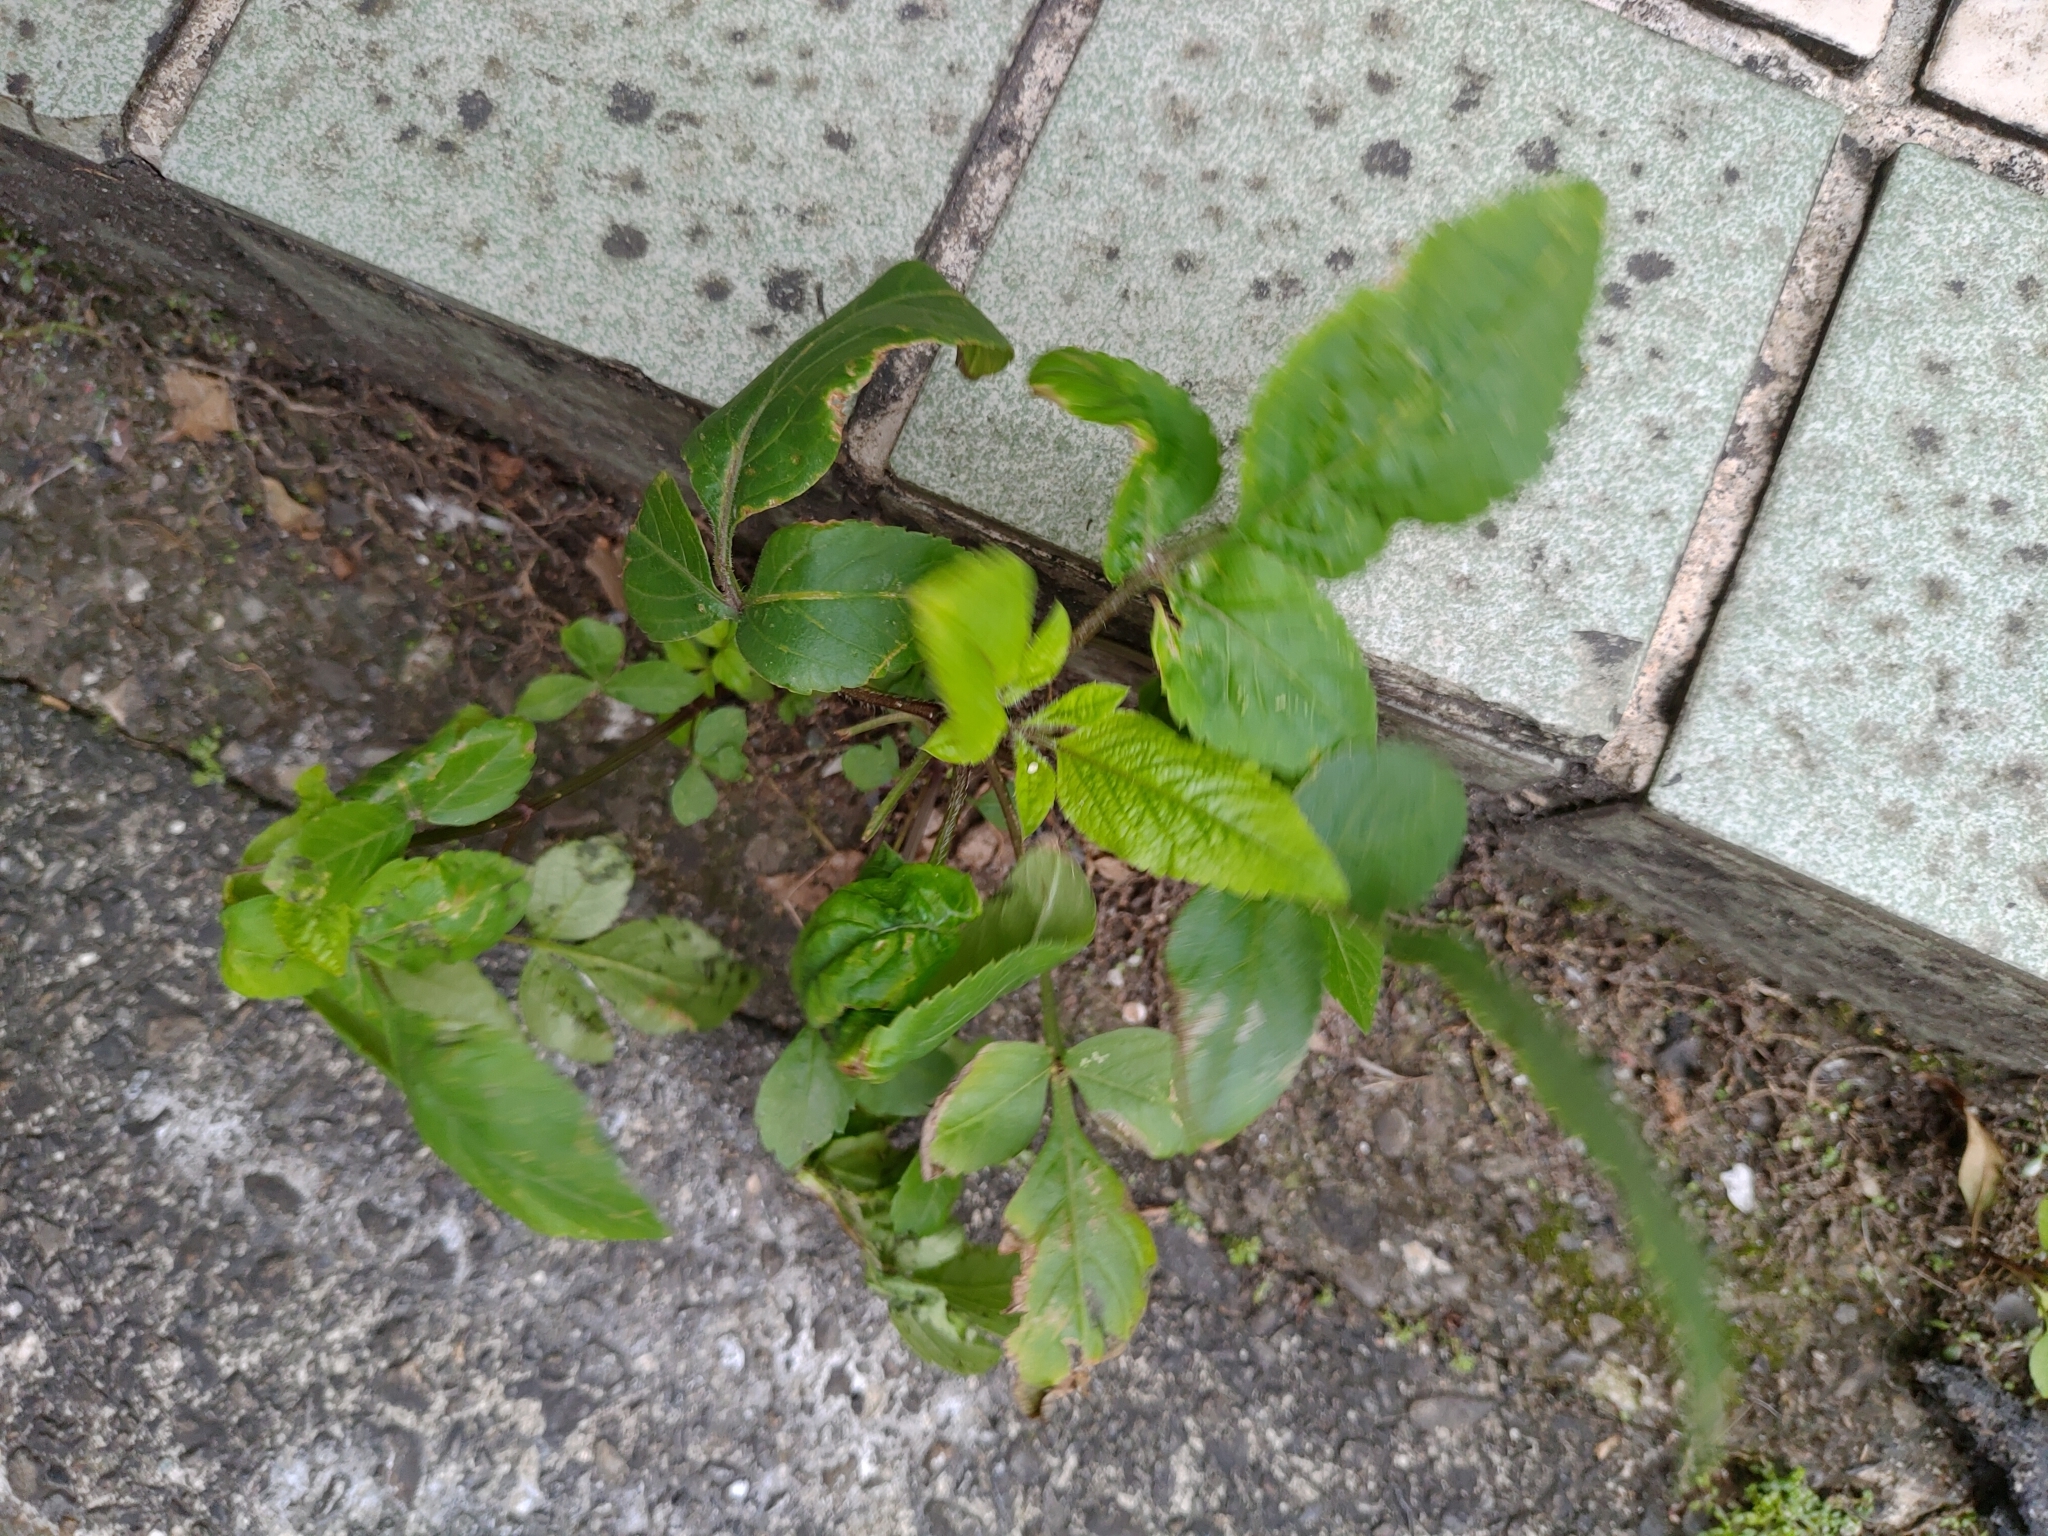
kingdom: Plantae
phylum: Tracheophyta
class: Magnoliopsida
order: Asterales
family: Asteraceae
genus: Bidens
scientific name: Bidens alba
